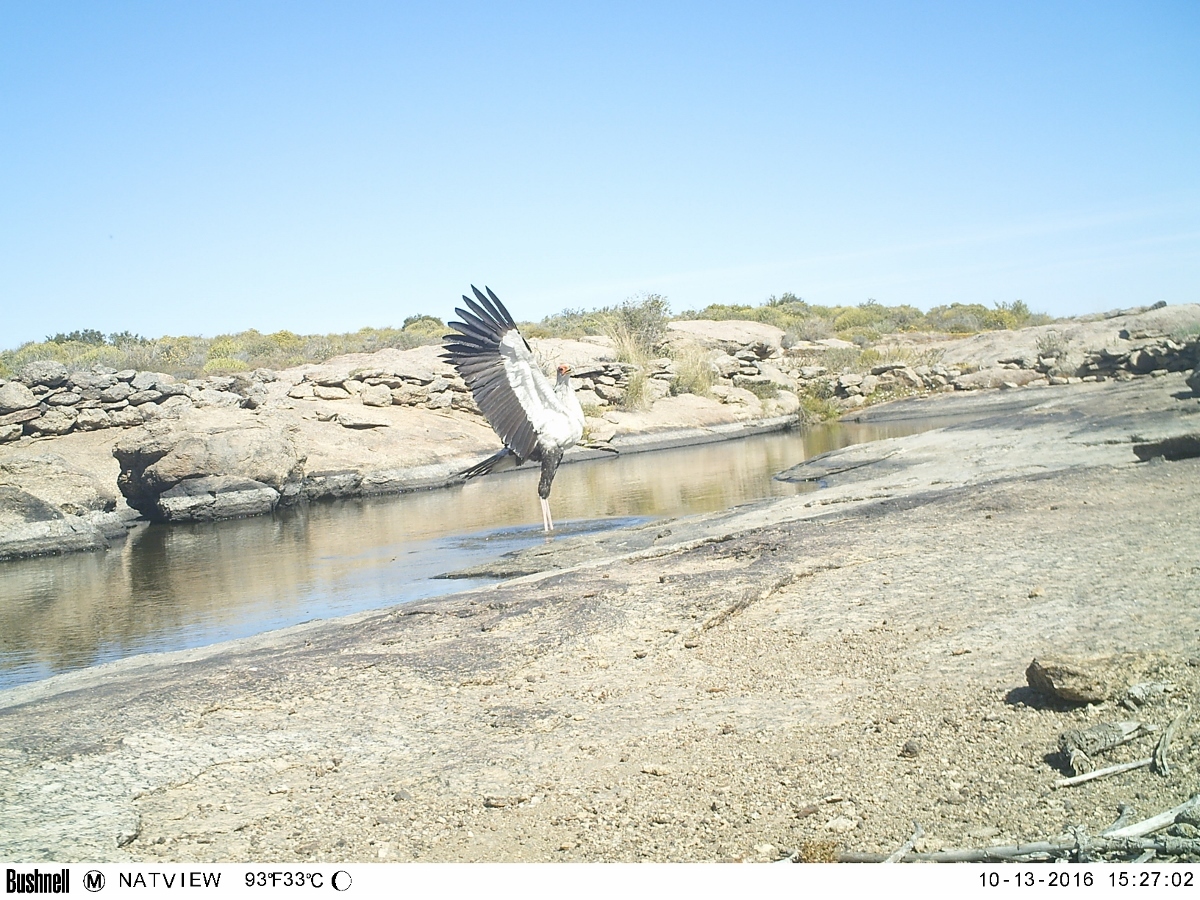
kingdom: Animalia
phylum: Chordata
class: Aves
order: Accipitriformes
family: Sagittariidae
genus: Sagittarius
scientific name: Sagittarius serpentarius
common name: Secretarybird
